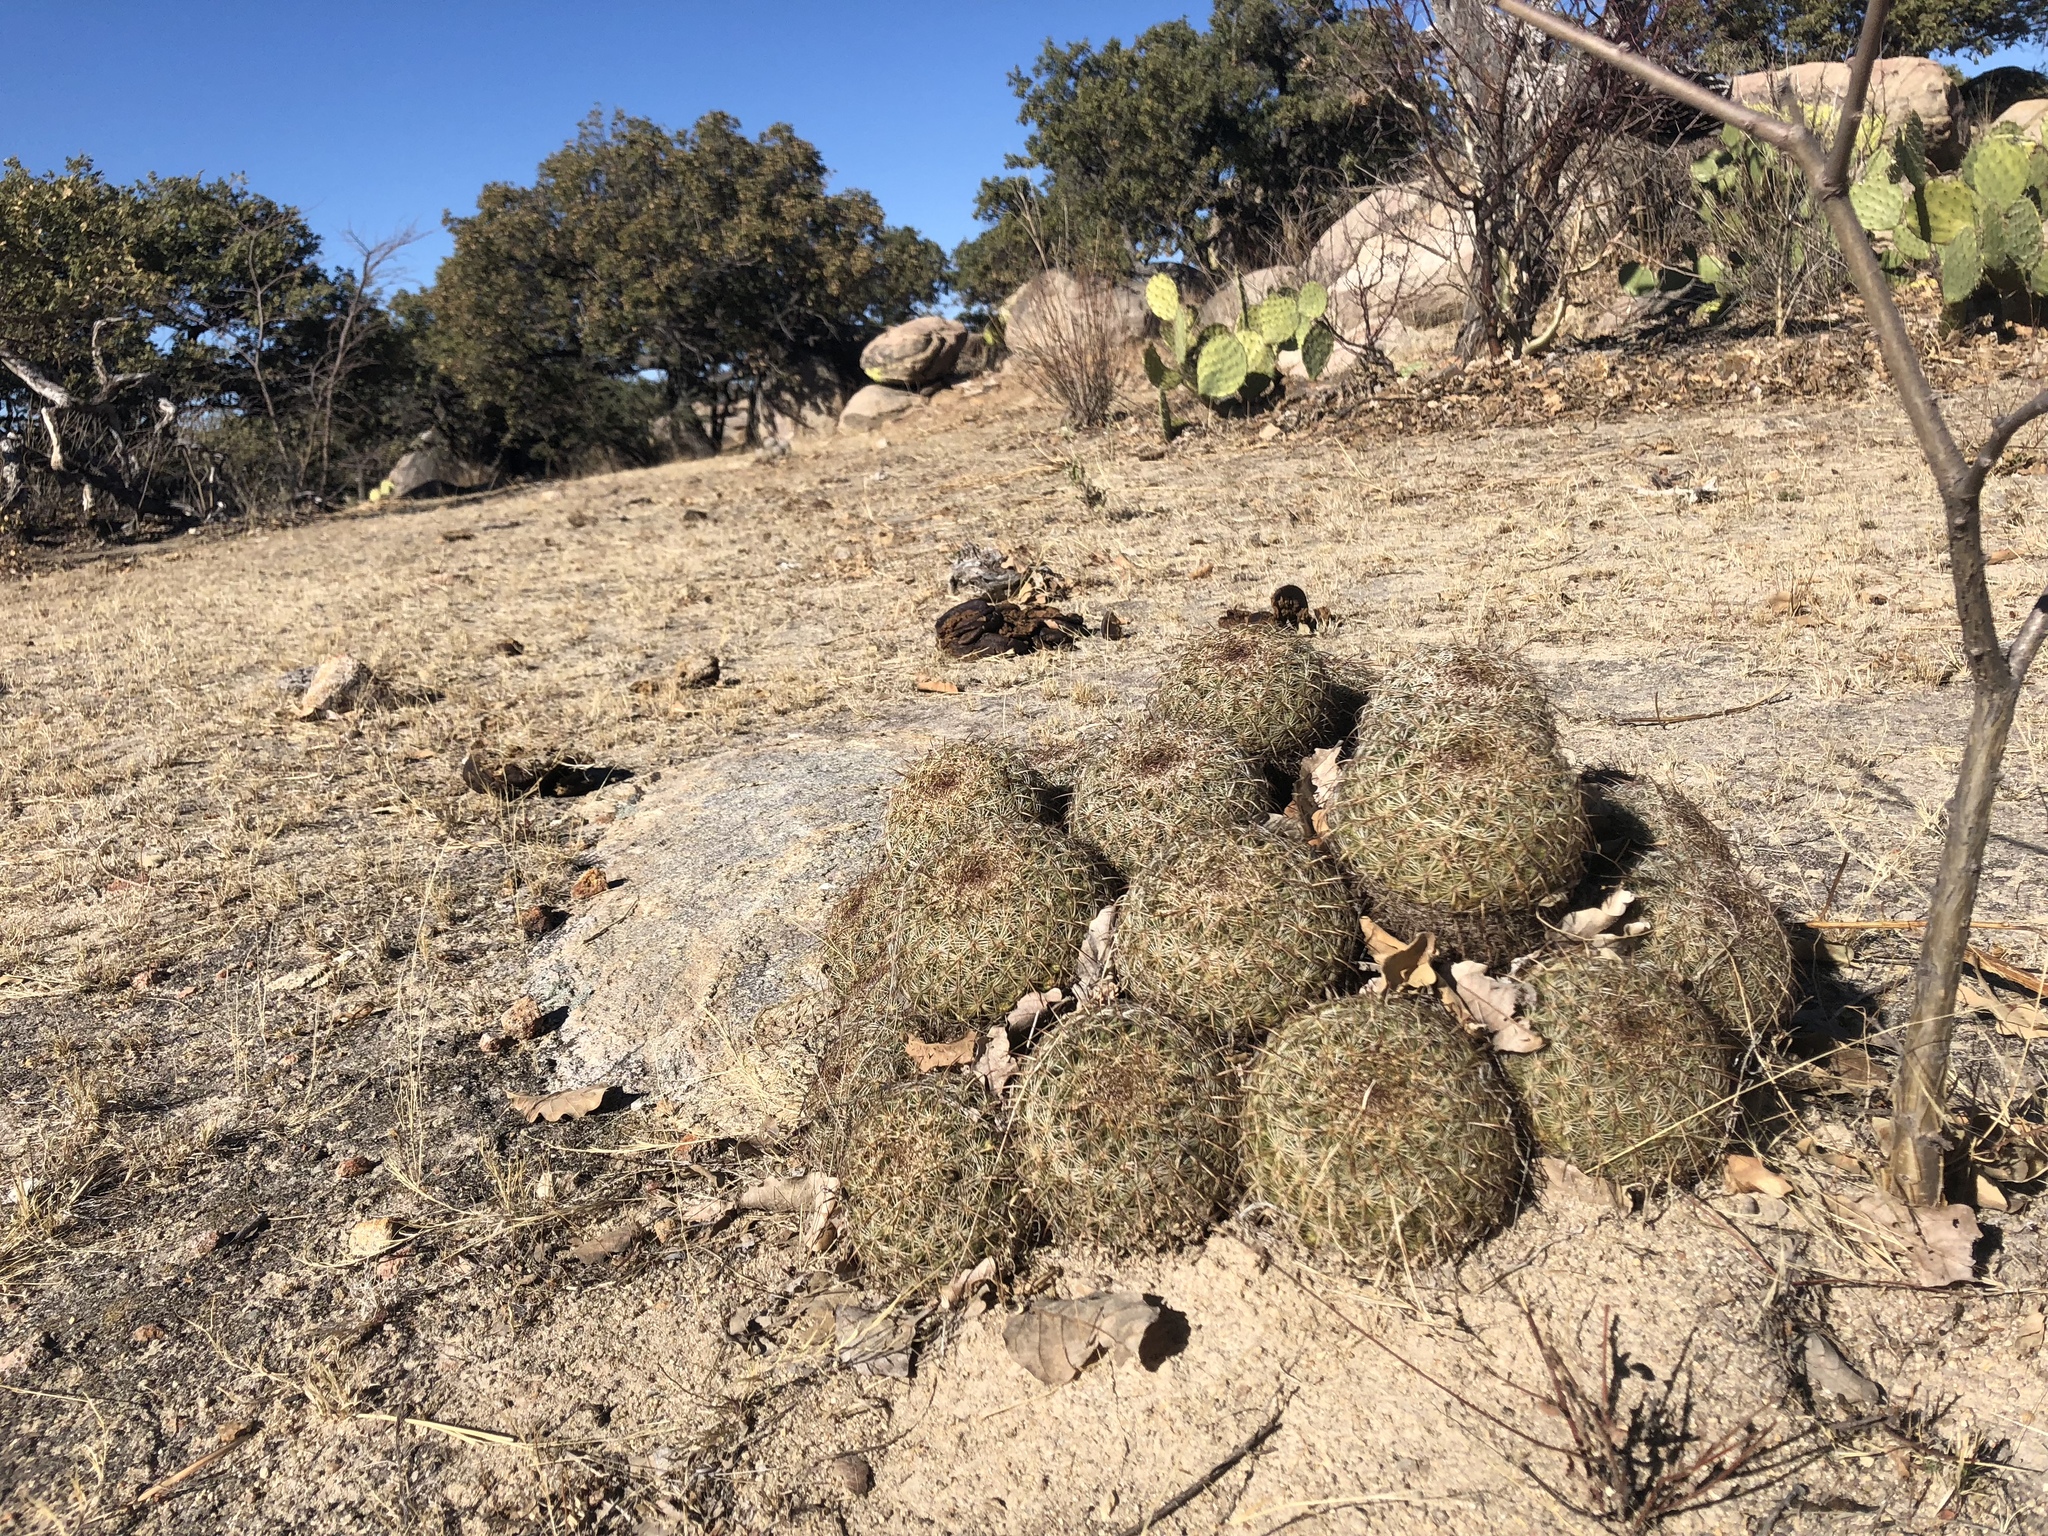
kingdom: Plantae
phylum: Tracheophyta
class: Magnoliopsida
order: Caryophyllales
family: Cactaceae
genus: Coryphantha
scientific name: Coryphantha recurvata
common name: Golden chested beehive
